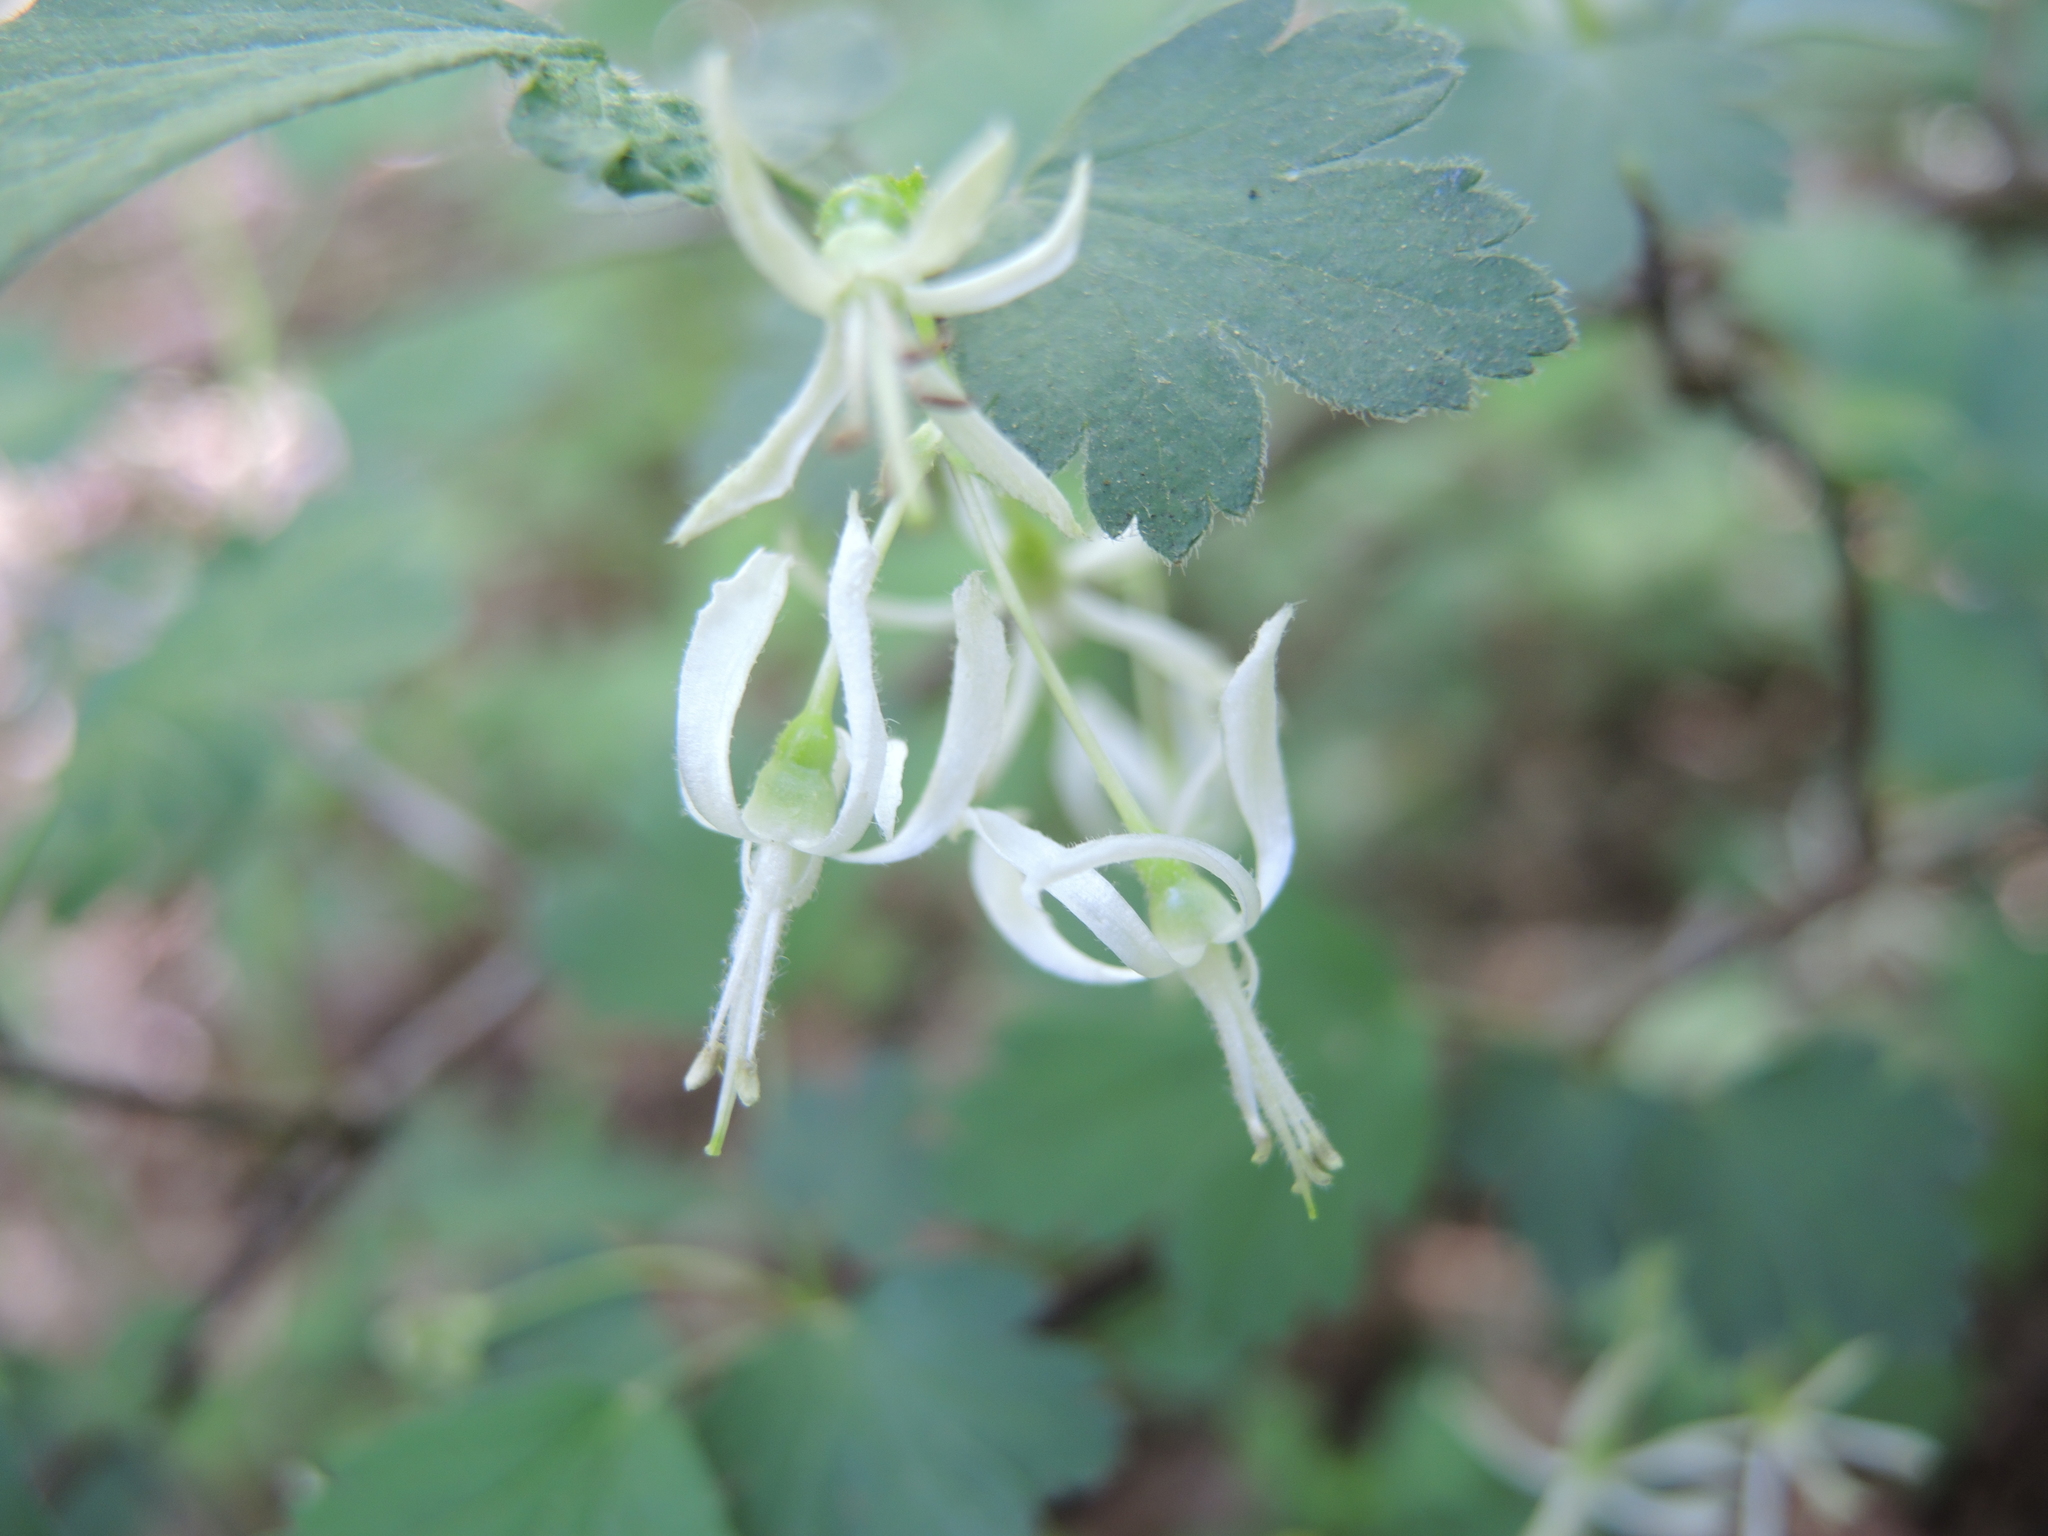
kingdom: Plantae
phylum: Tracheophyta
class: Magnoliopsida
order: Saxifragales
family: Grossulariaceae
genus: Ribes
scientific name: Ribes curvatum
